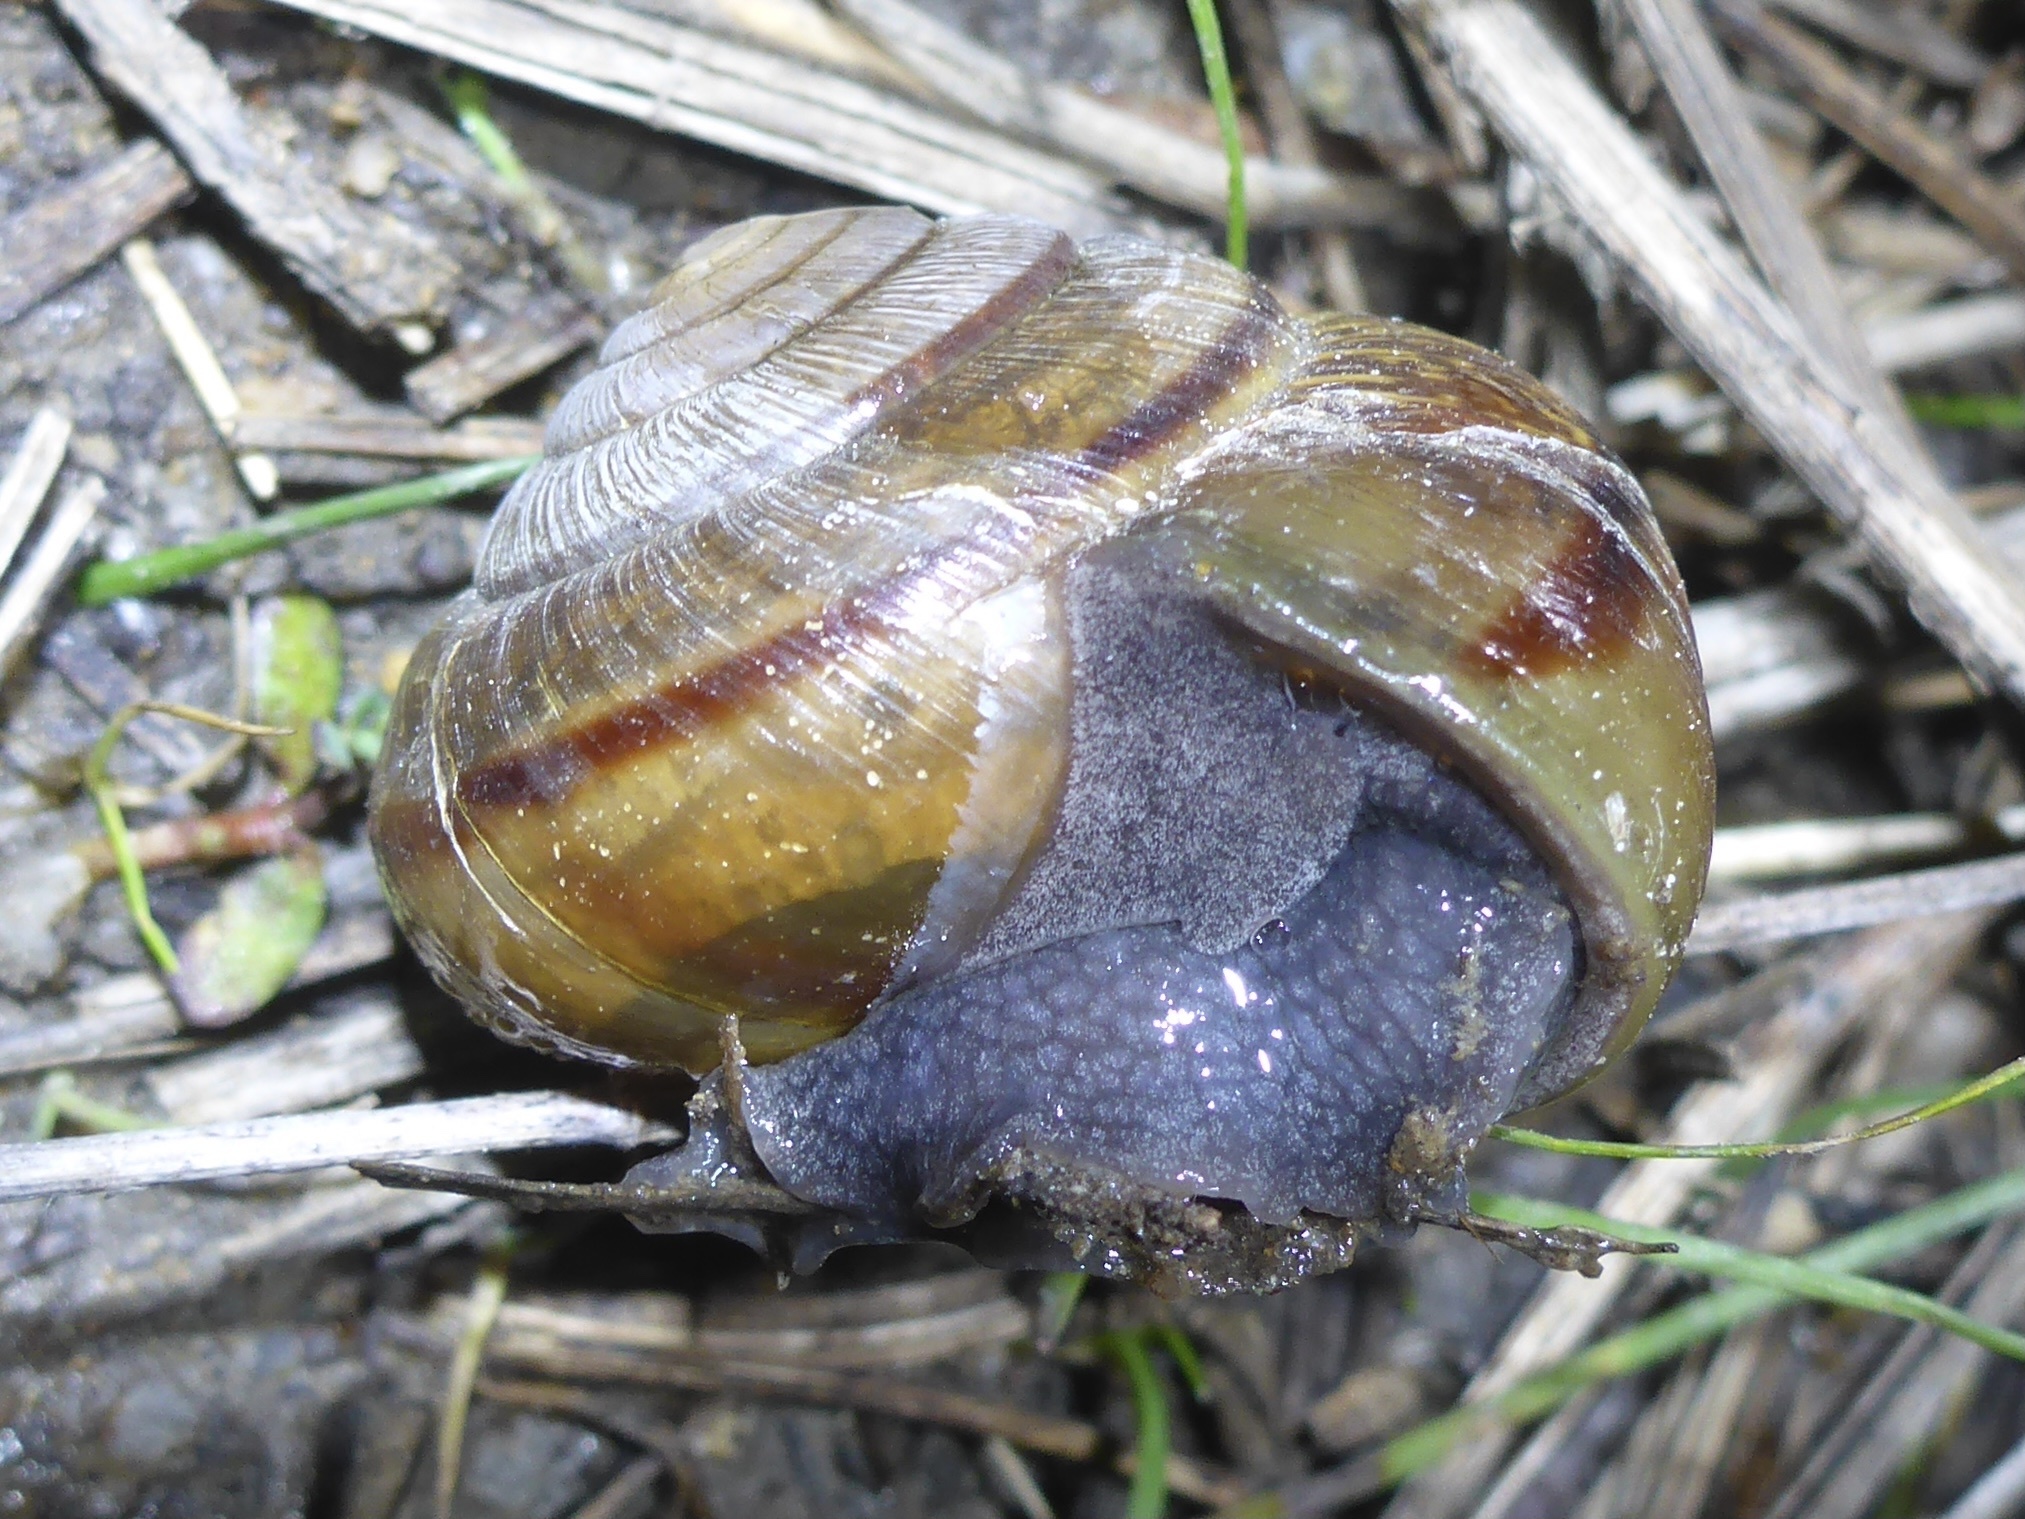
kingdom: Animalia
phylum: Mollusca
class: Gastropoda
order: Stylommatophora
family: Xanthonychidae
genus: Helminthoglypta
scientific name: Helminthoglypta arrosa
